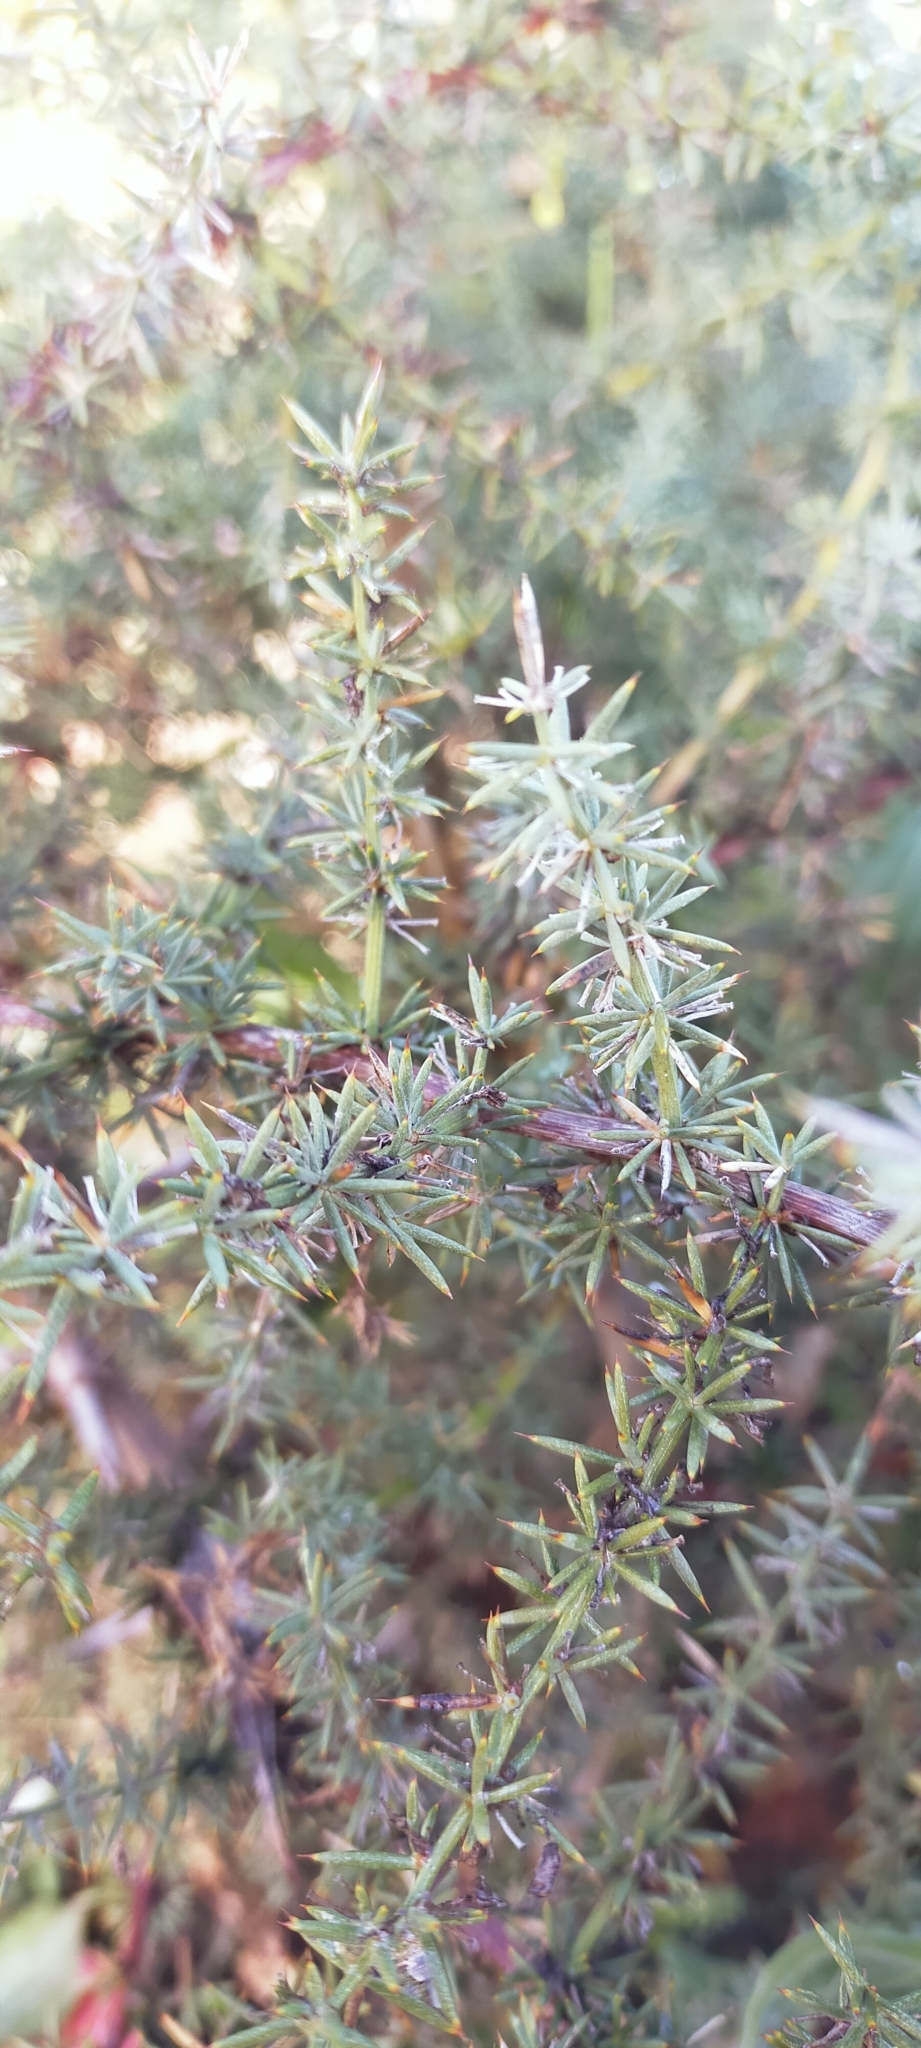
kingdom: Plantae
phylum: Tracheophyta
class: Liliopsida
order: Asparagales
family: Asparagaceae
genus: Asparagus
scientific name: Asparagus acutifolius
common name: Wild asparagus
